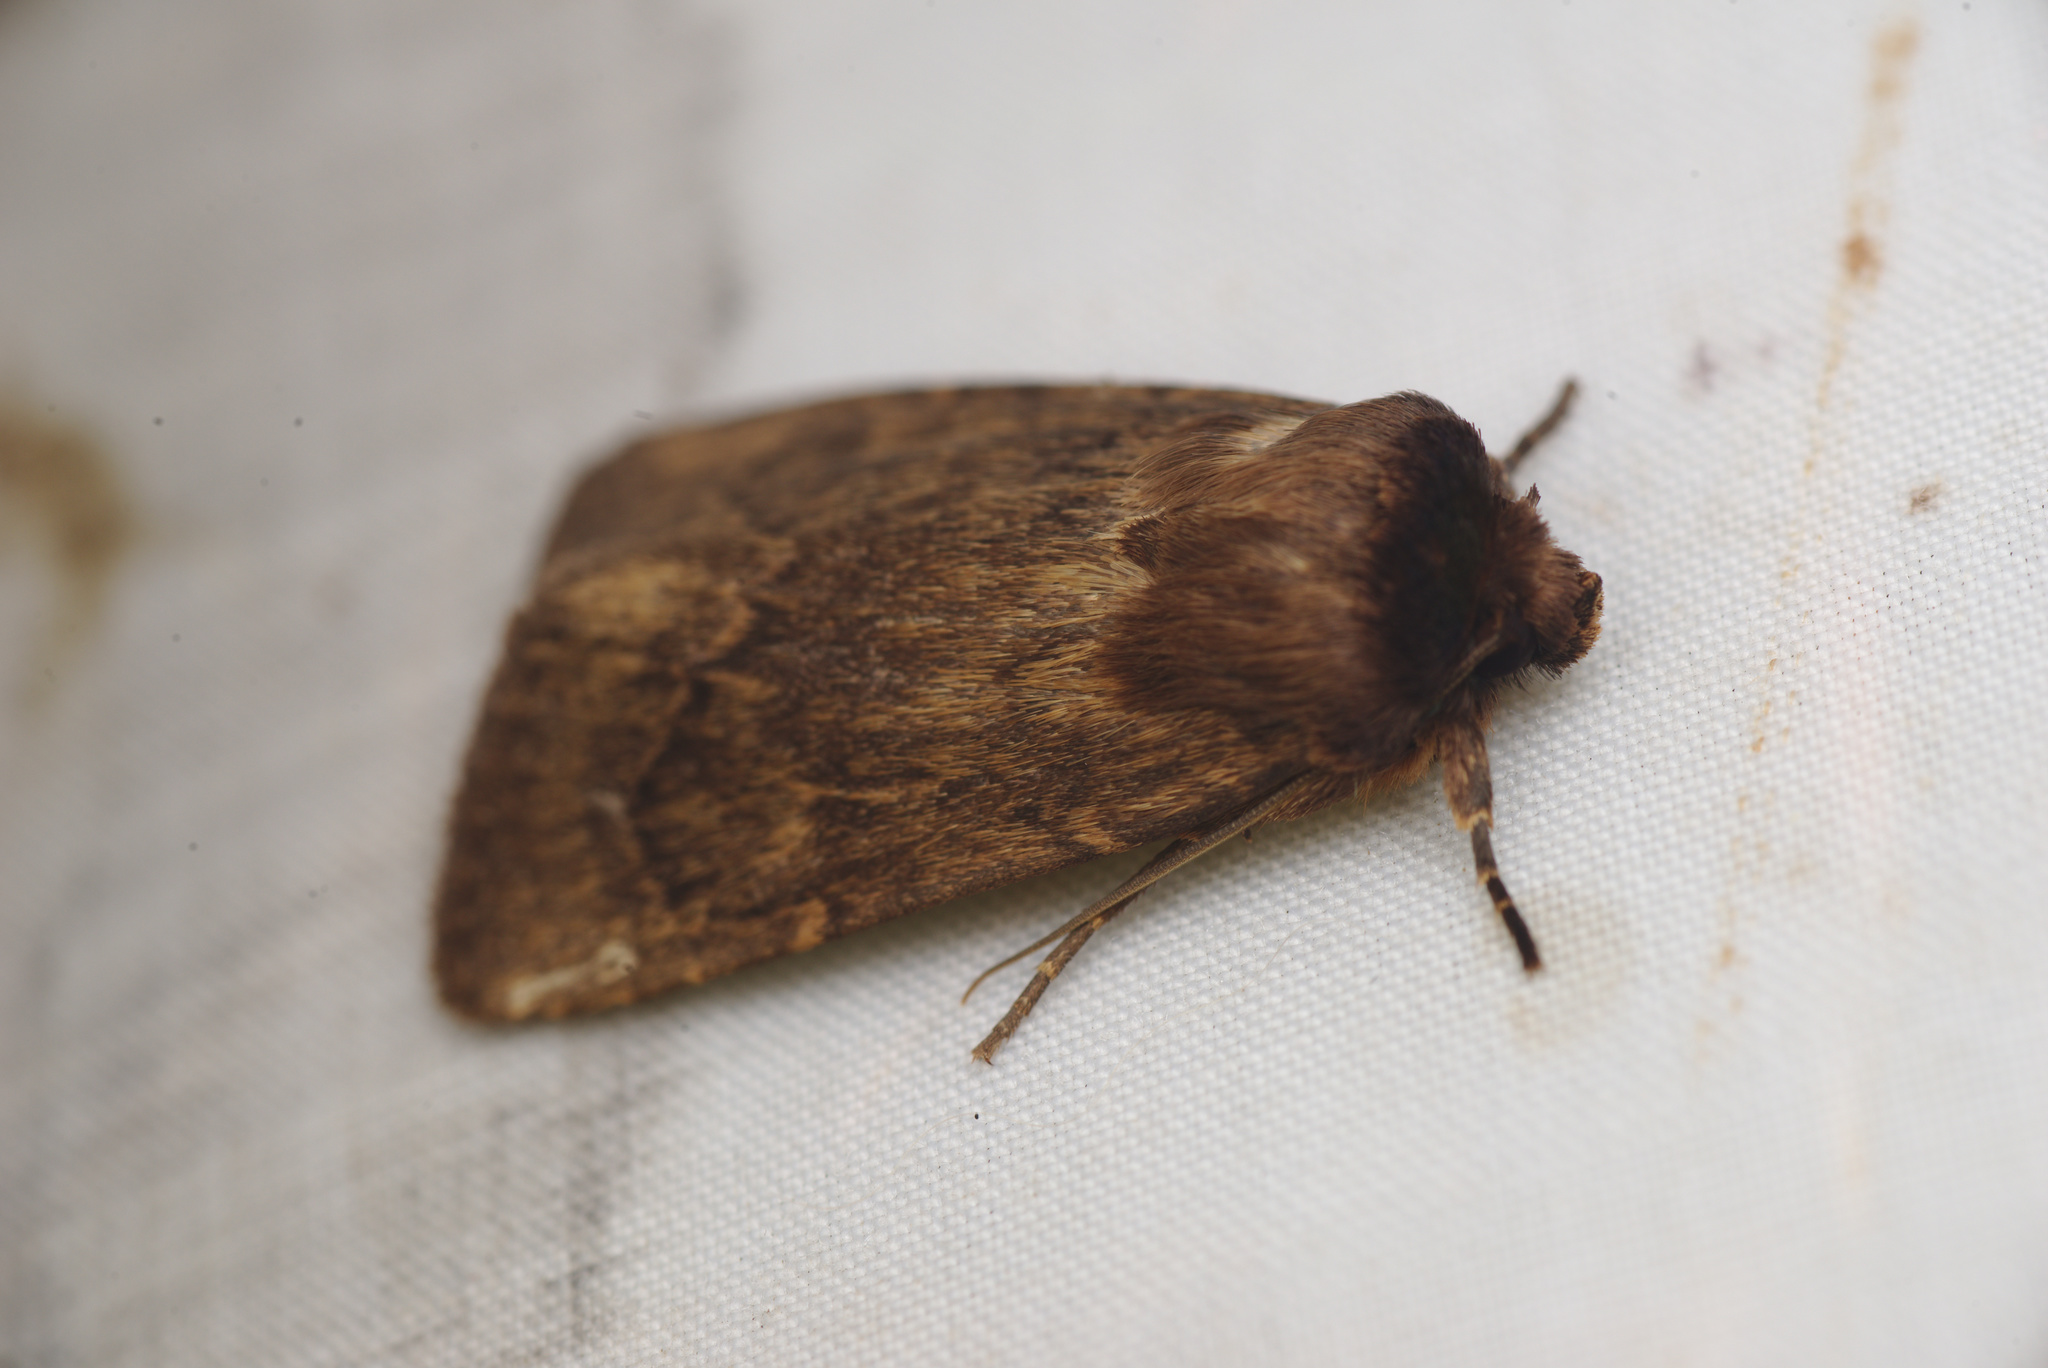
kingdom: Animalia
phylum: Arthropoda
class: Insecta
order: Lepidoptera
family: Noctuidae
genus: Bityla
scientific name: Bityla defigurata
